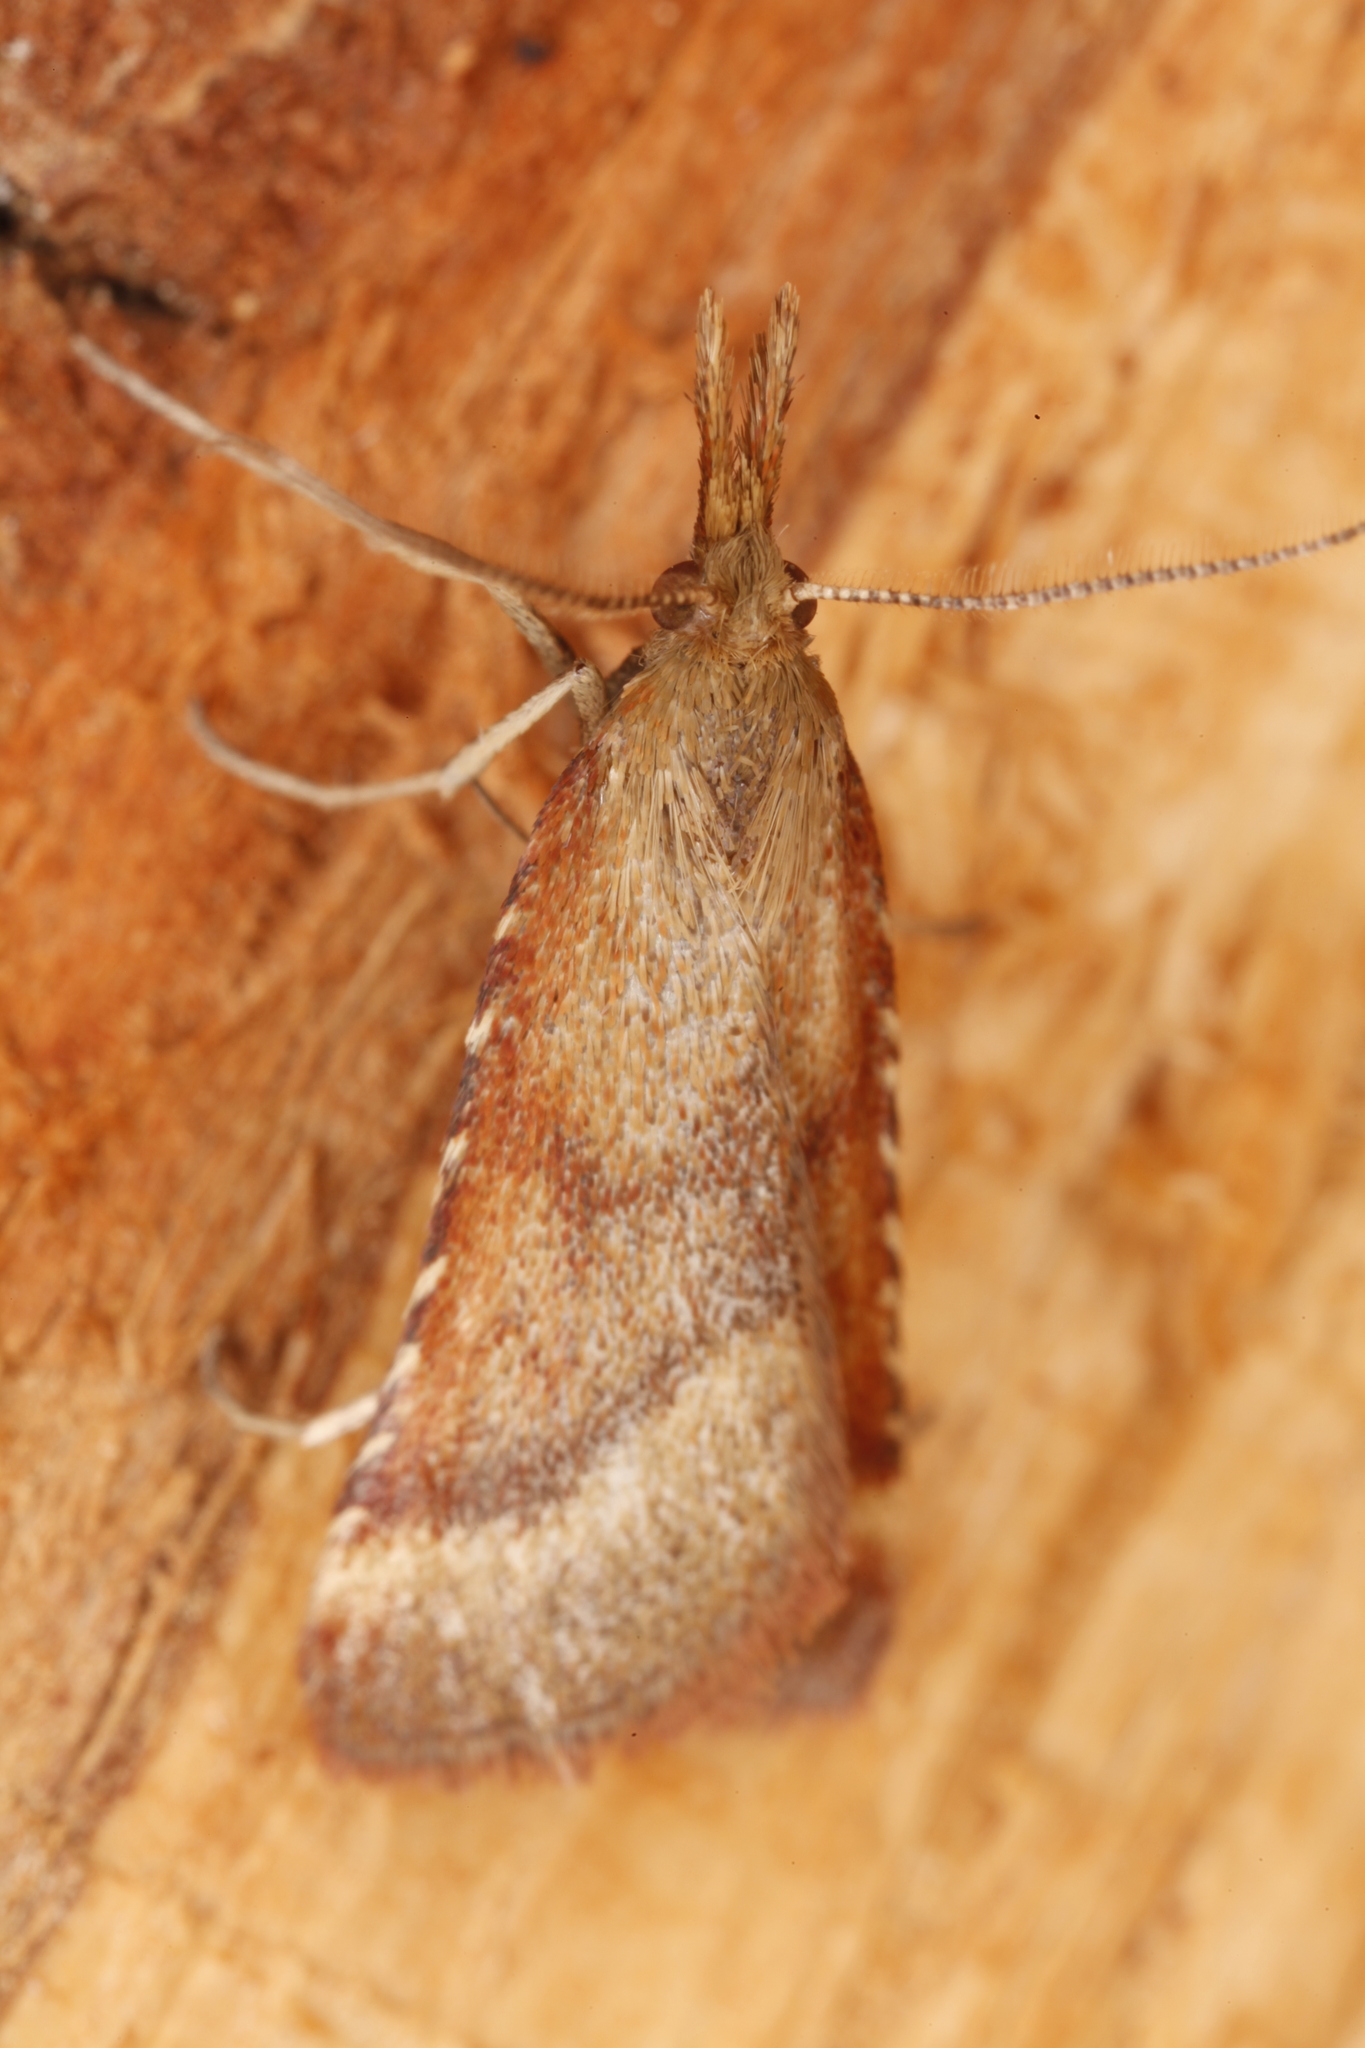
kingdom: Animalia
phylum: Arthropoda
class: Insecta
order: Lepidoptera
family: Pyralidae
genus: Synaphe
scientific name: Synaphe punctalis
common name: Long-legged tabby
